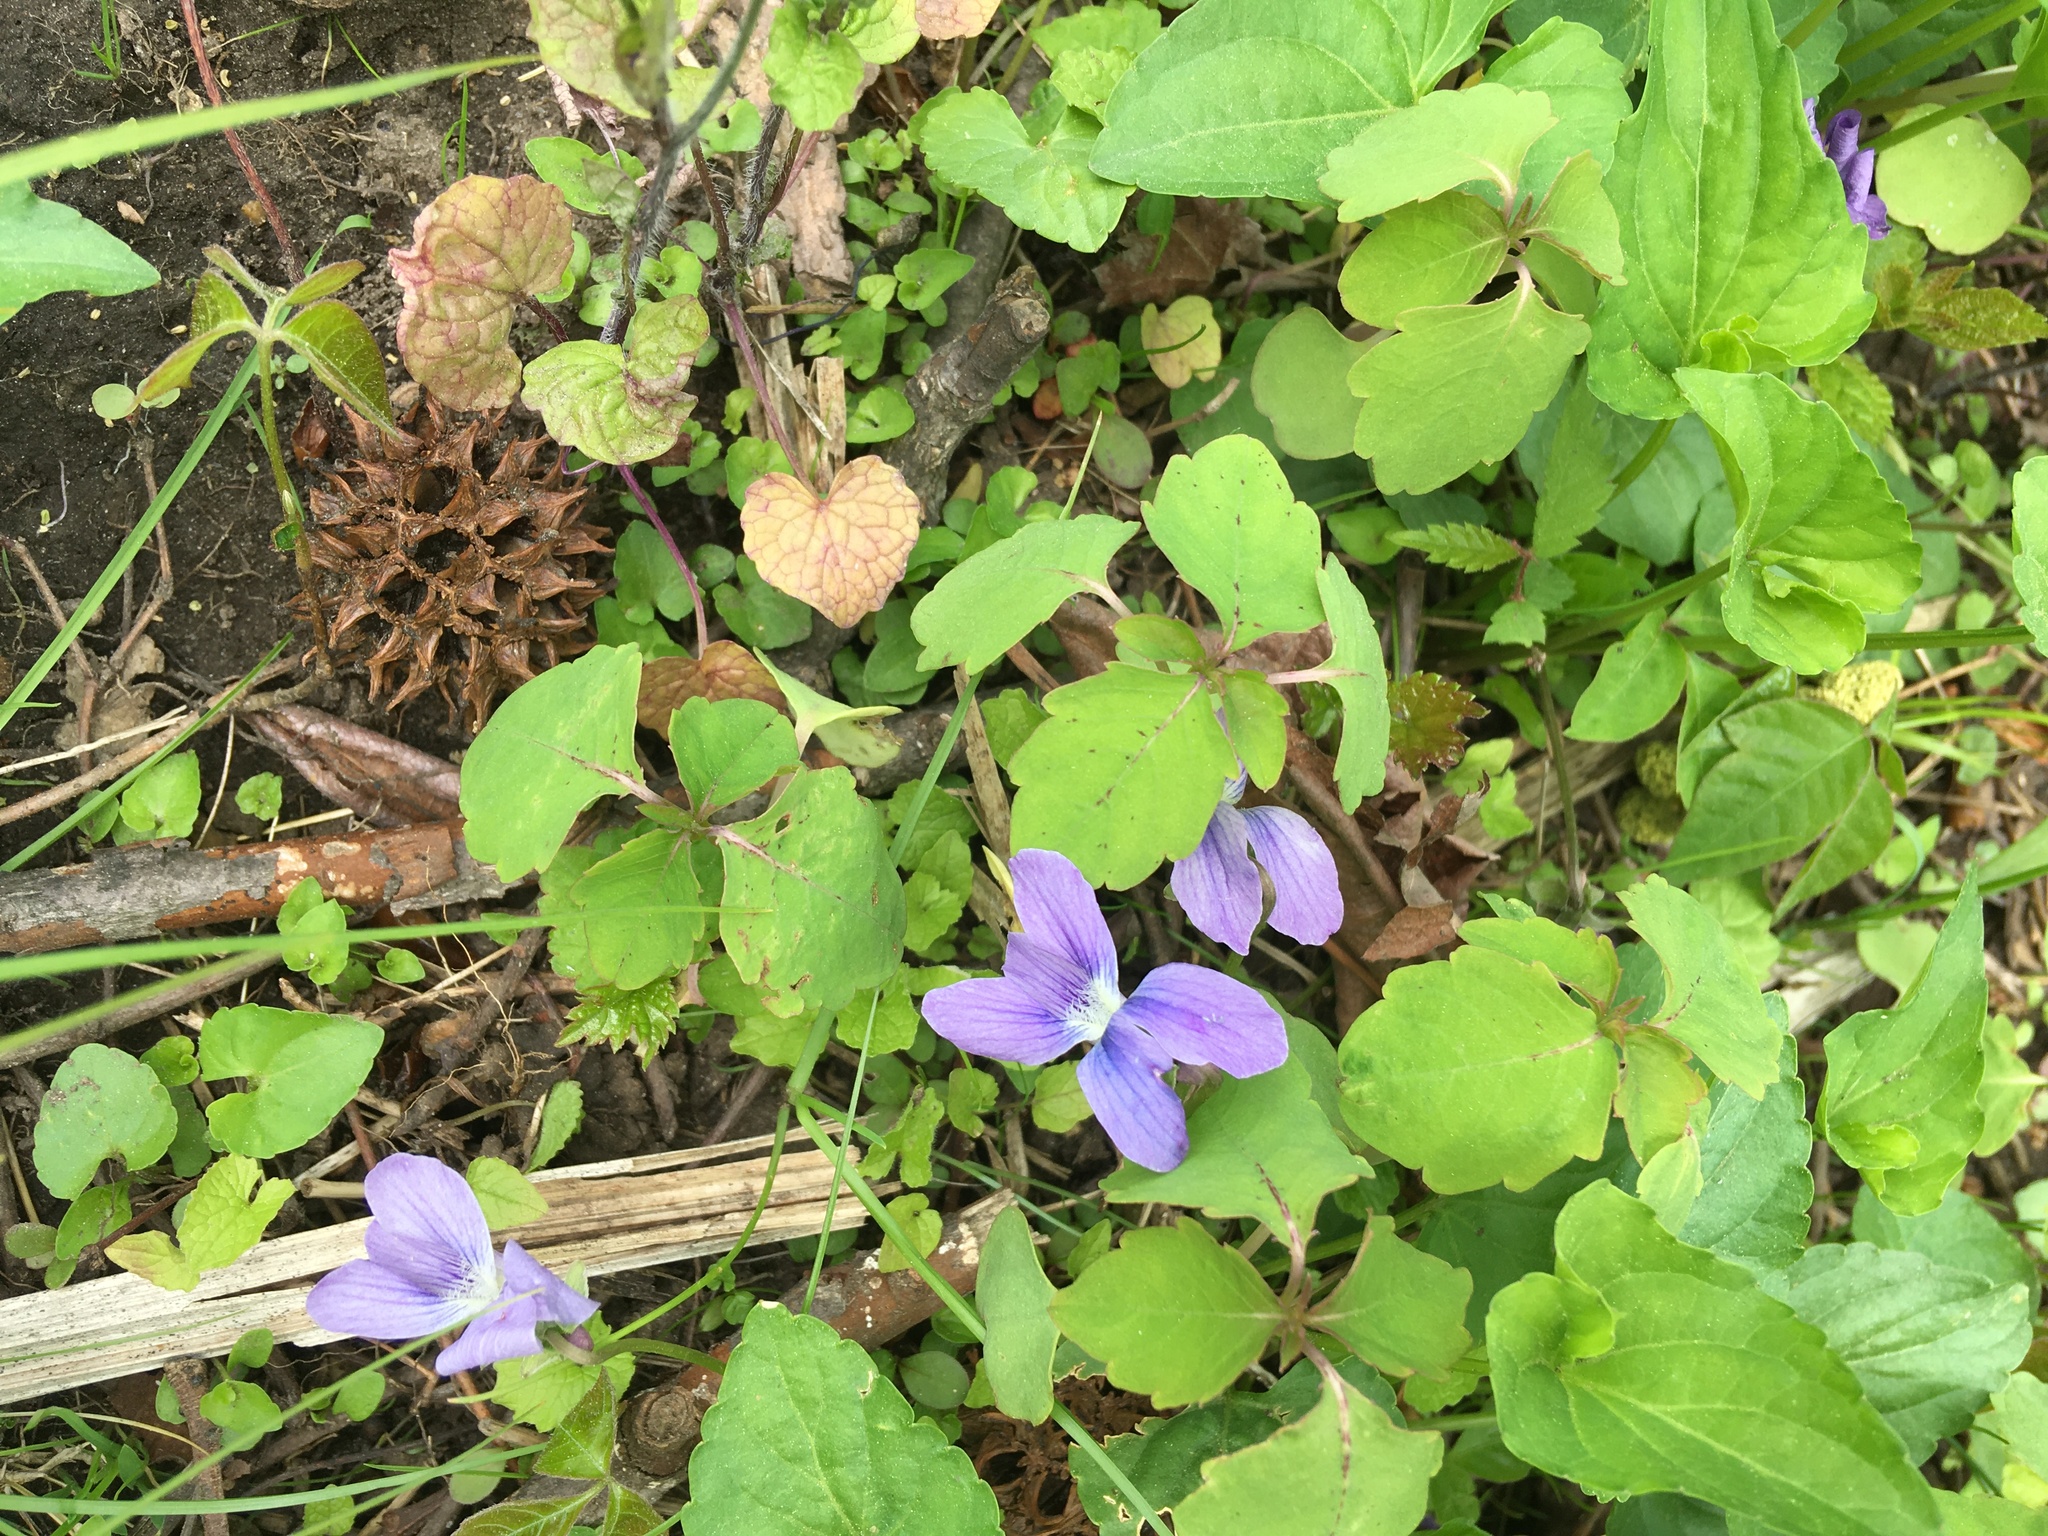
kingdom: Plantae
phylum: Tracheophyta
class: Magnoliopsida
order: Malpighiales
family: Violaceae
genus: Viola
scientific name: Viola sororia
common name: Dooryard violet
